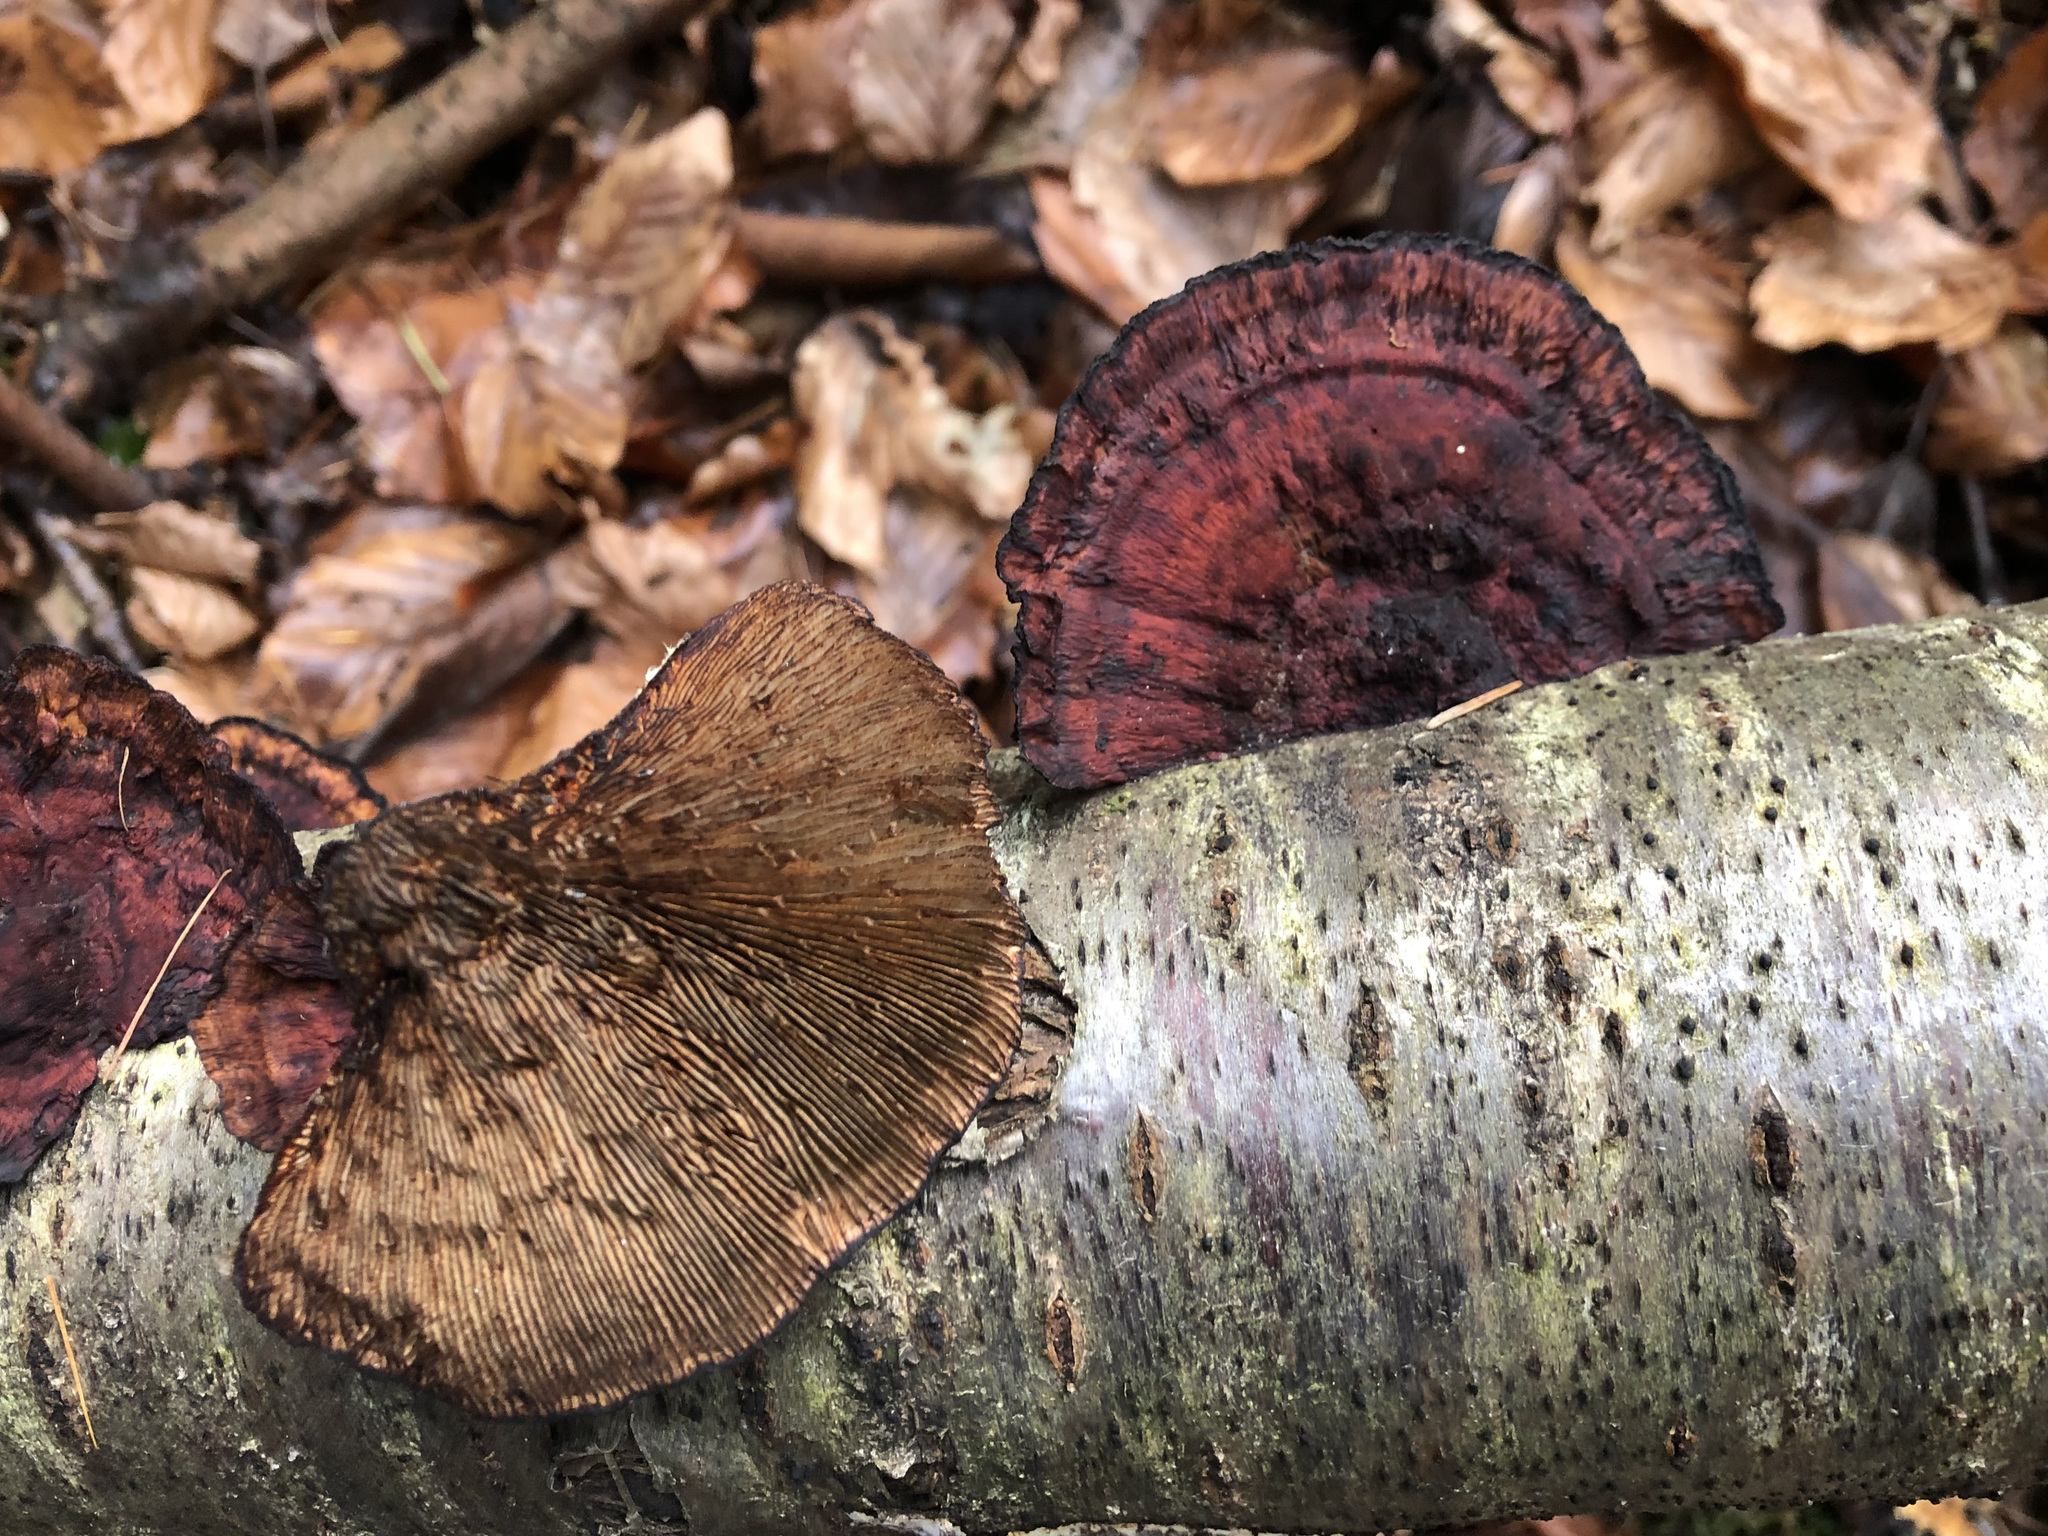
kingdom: Fungi
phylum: Basidiomycota
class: Agaricomycetes
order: Polyporales
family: Polyporaceae
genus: Daedaleopsis
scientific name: Daedaleopsis tricolor
